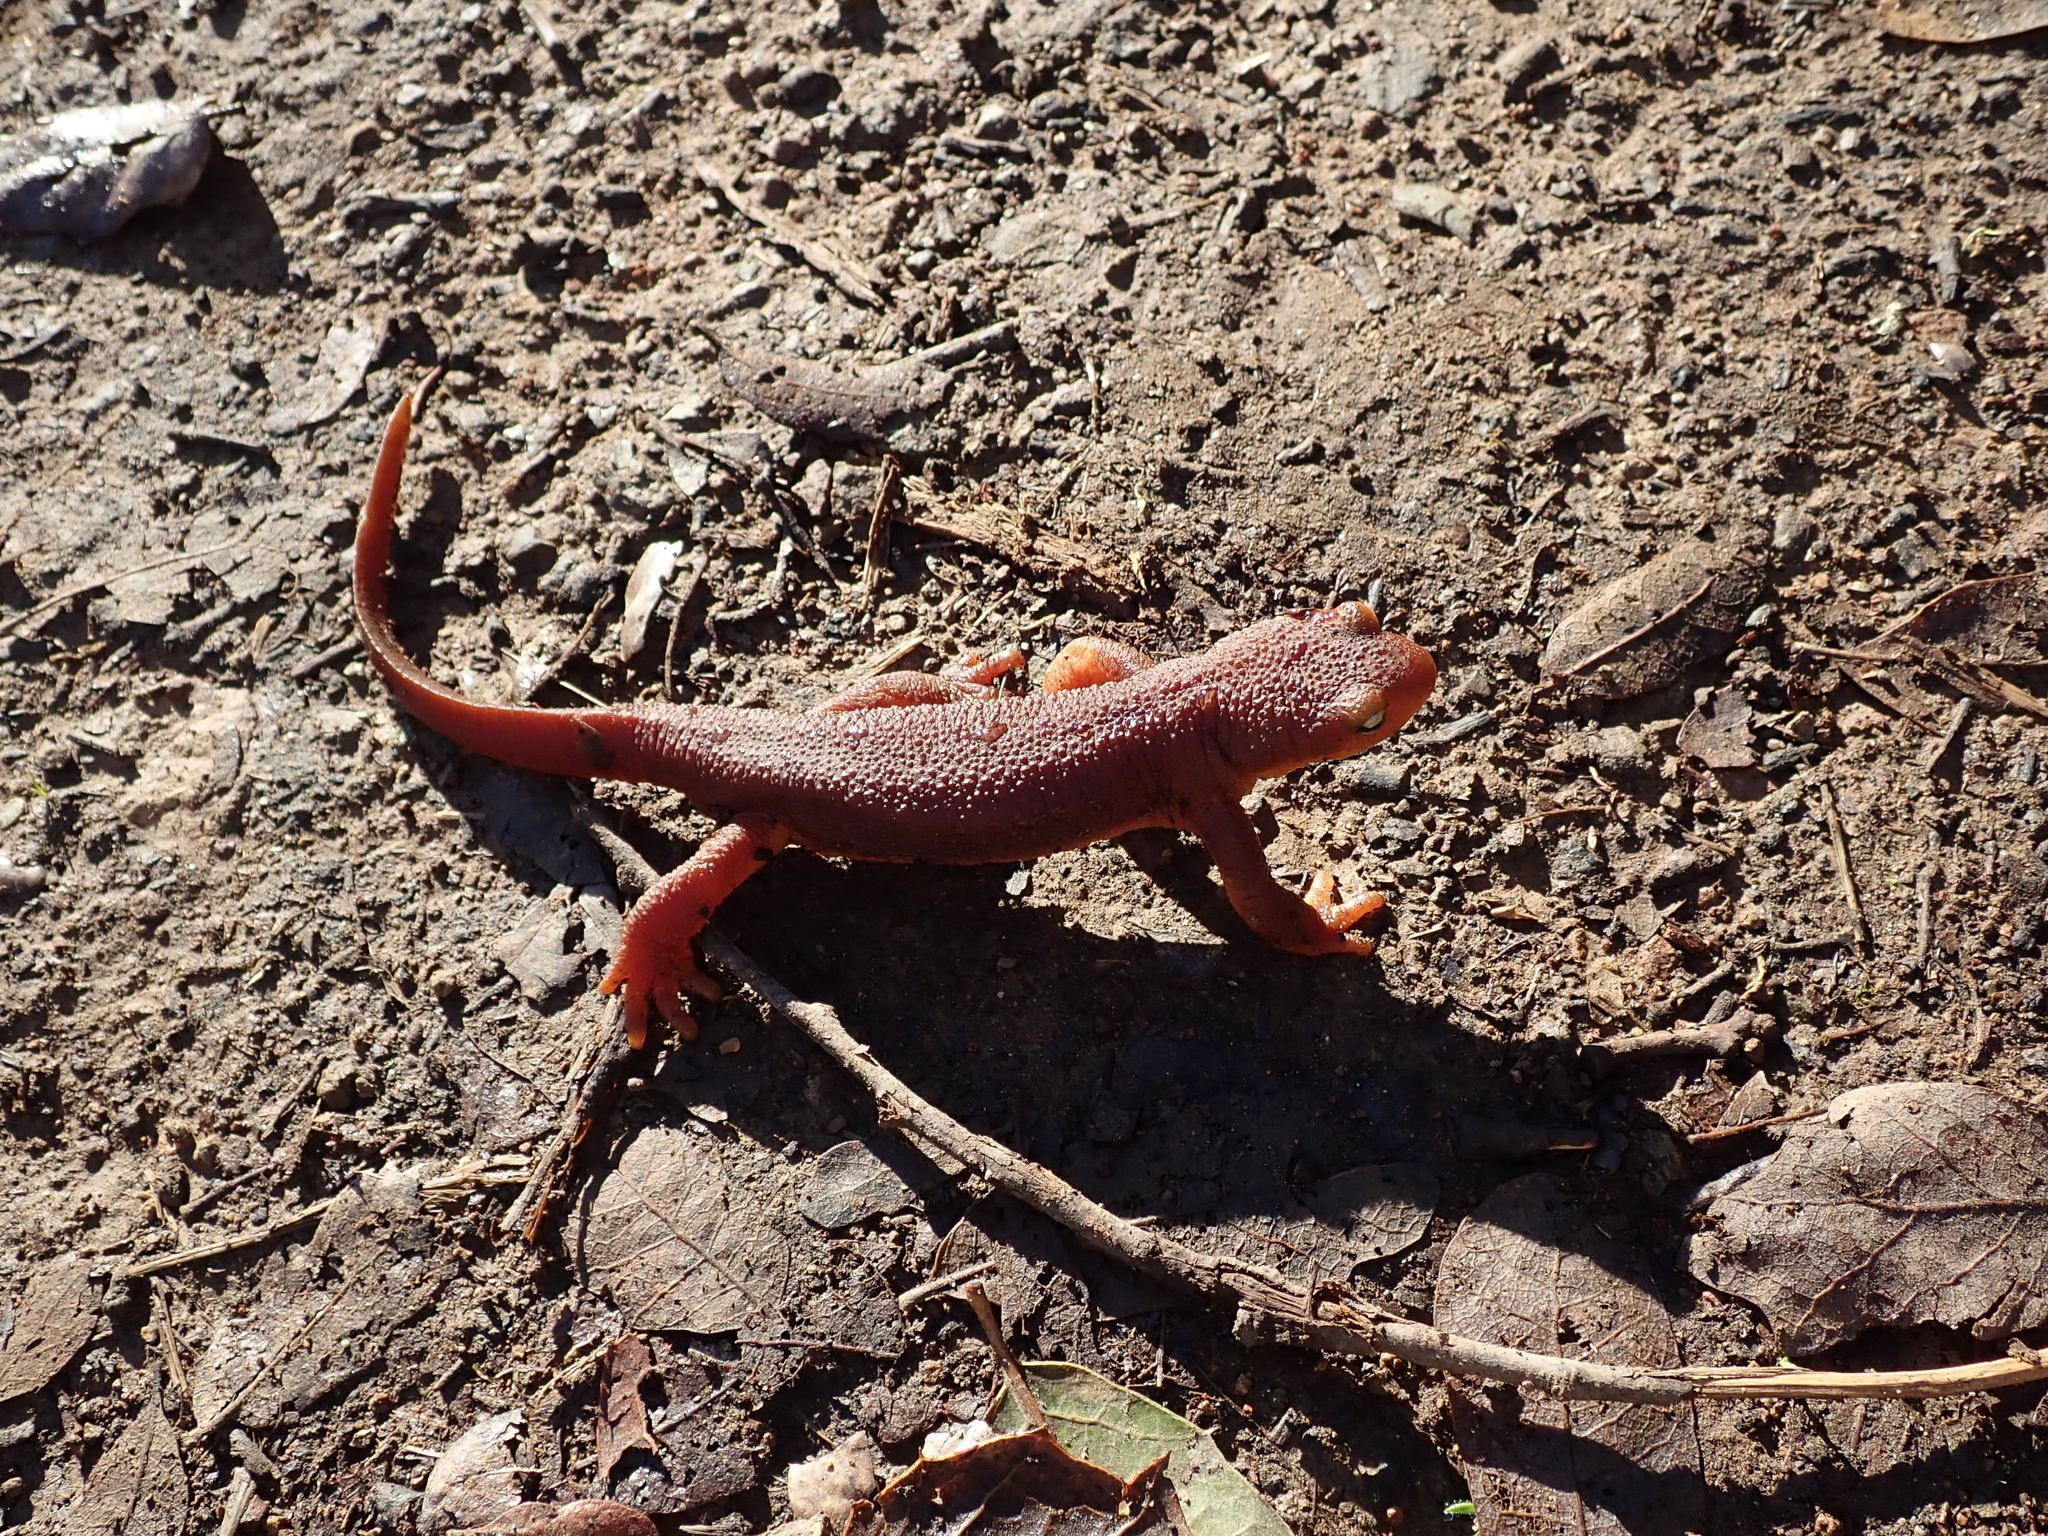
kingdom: Animalia
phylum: Chordata
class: Amphibia
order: Caudata
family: Salamandridae
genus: Taricha
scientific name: Taricha torosa
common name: California newt
